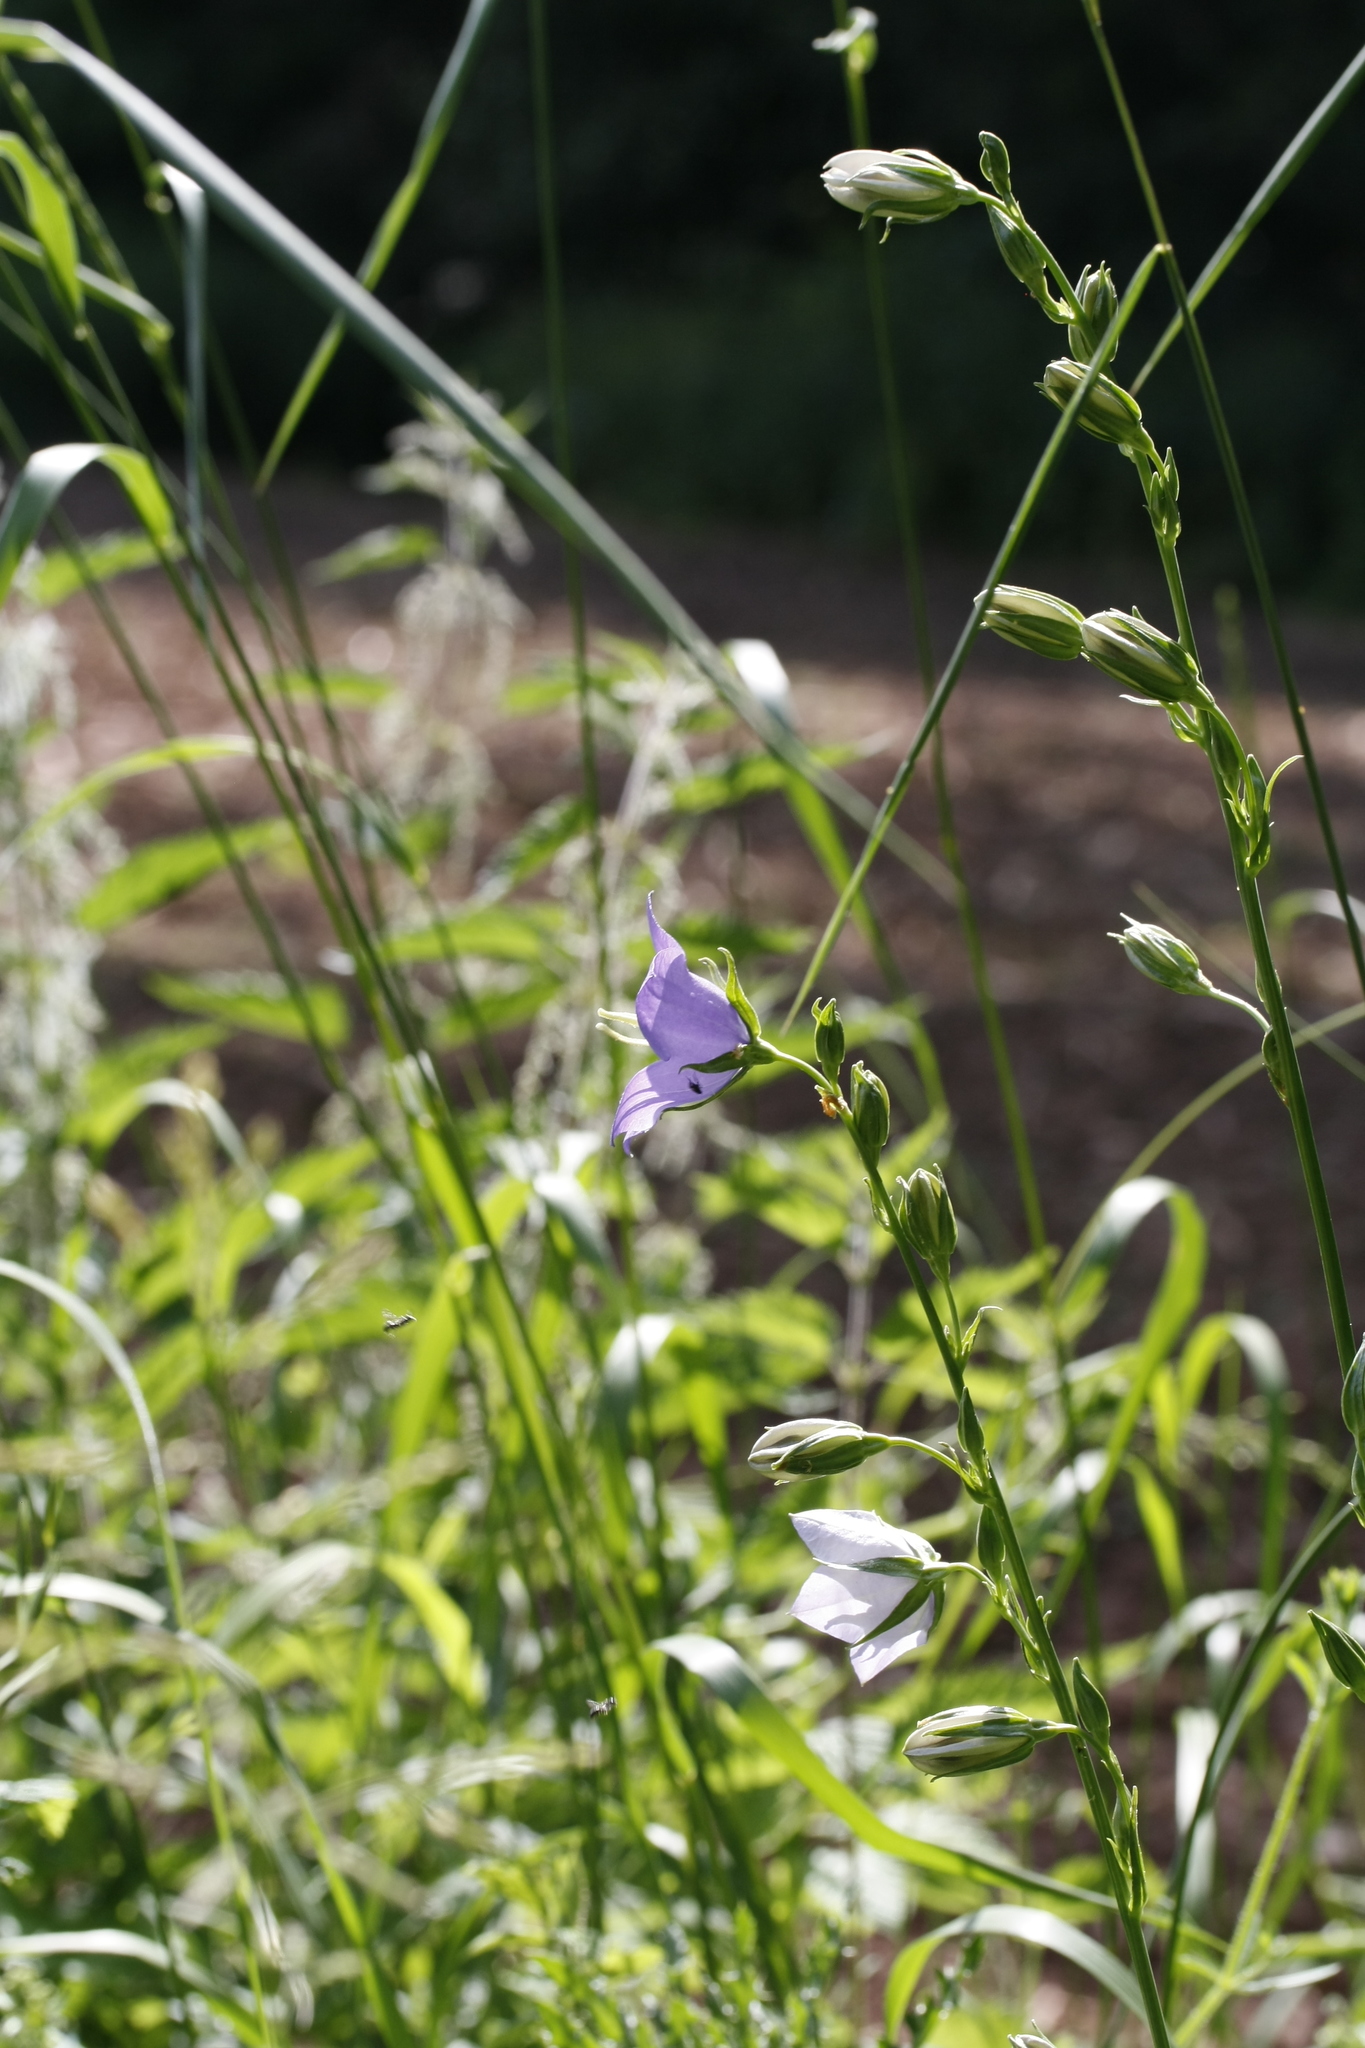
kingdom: Plantae
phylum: Tracheophyta
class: Magnoliopsida
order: Asterales
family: Campanulaceae
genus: Campanula
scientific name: Campanula persicifolia
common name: Peach-leaved bellflower
